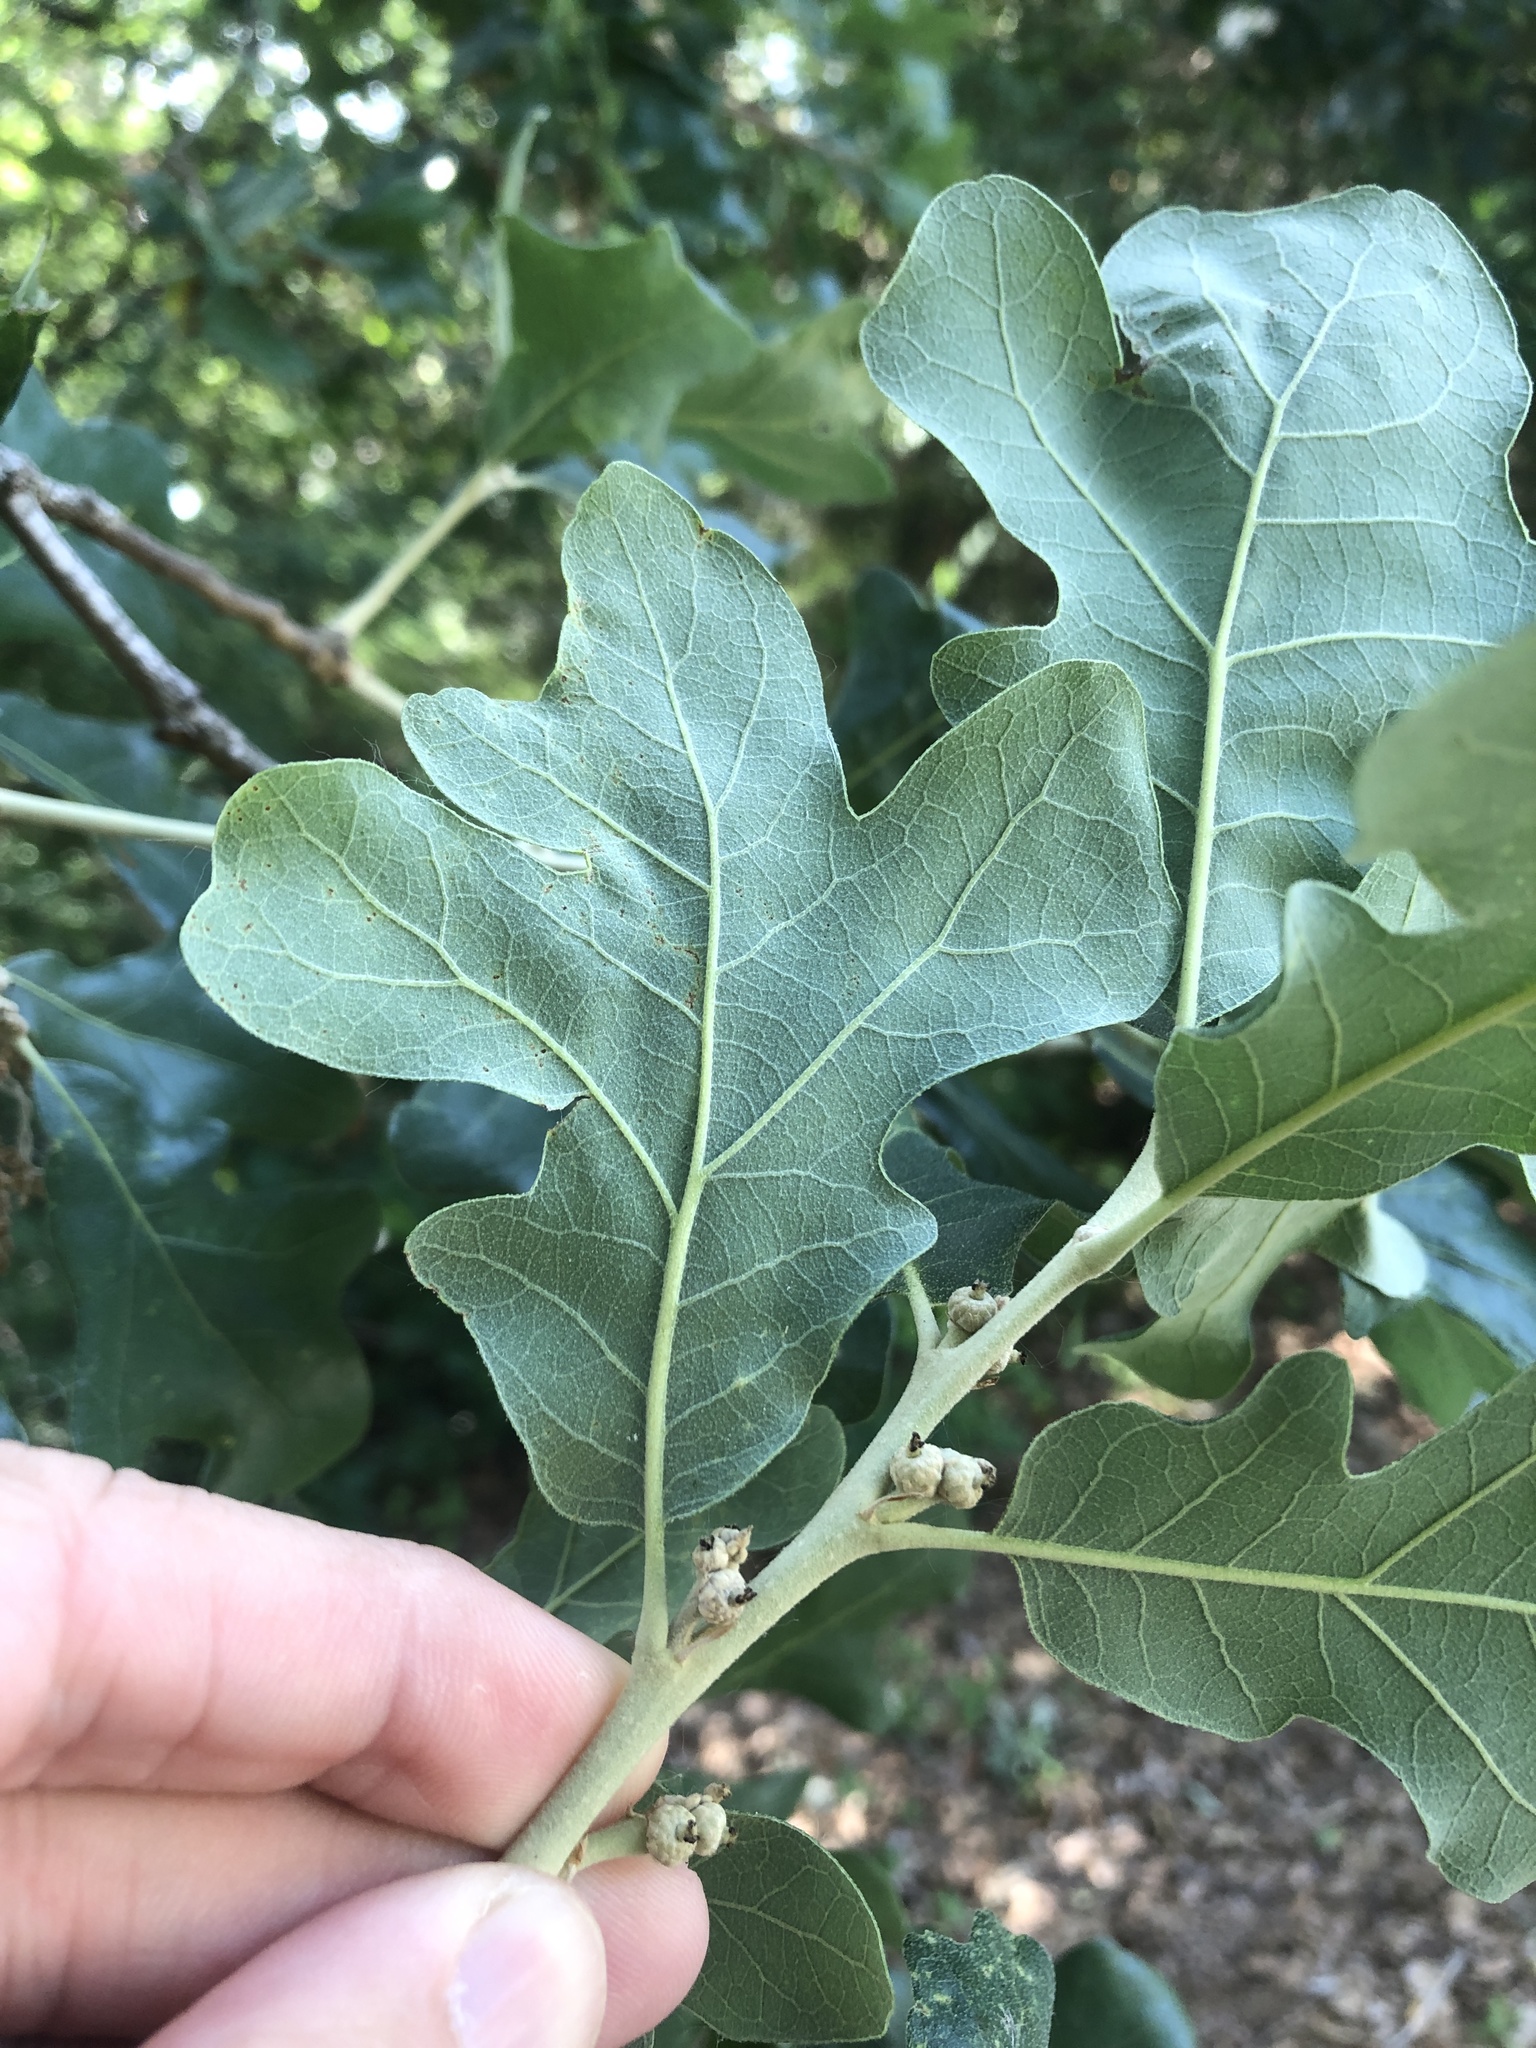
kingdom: Plantae
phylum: Tracheophyta
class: Magnoliopsida
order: Fagales
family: Fagaceae
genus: Quercus
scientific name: Quercus stellata
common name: Post oak
